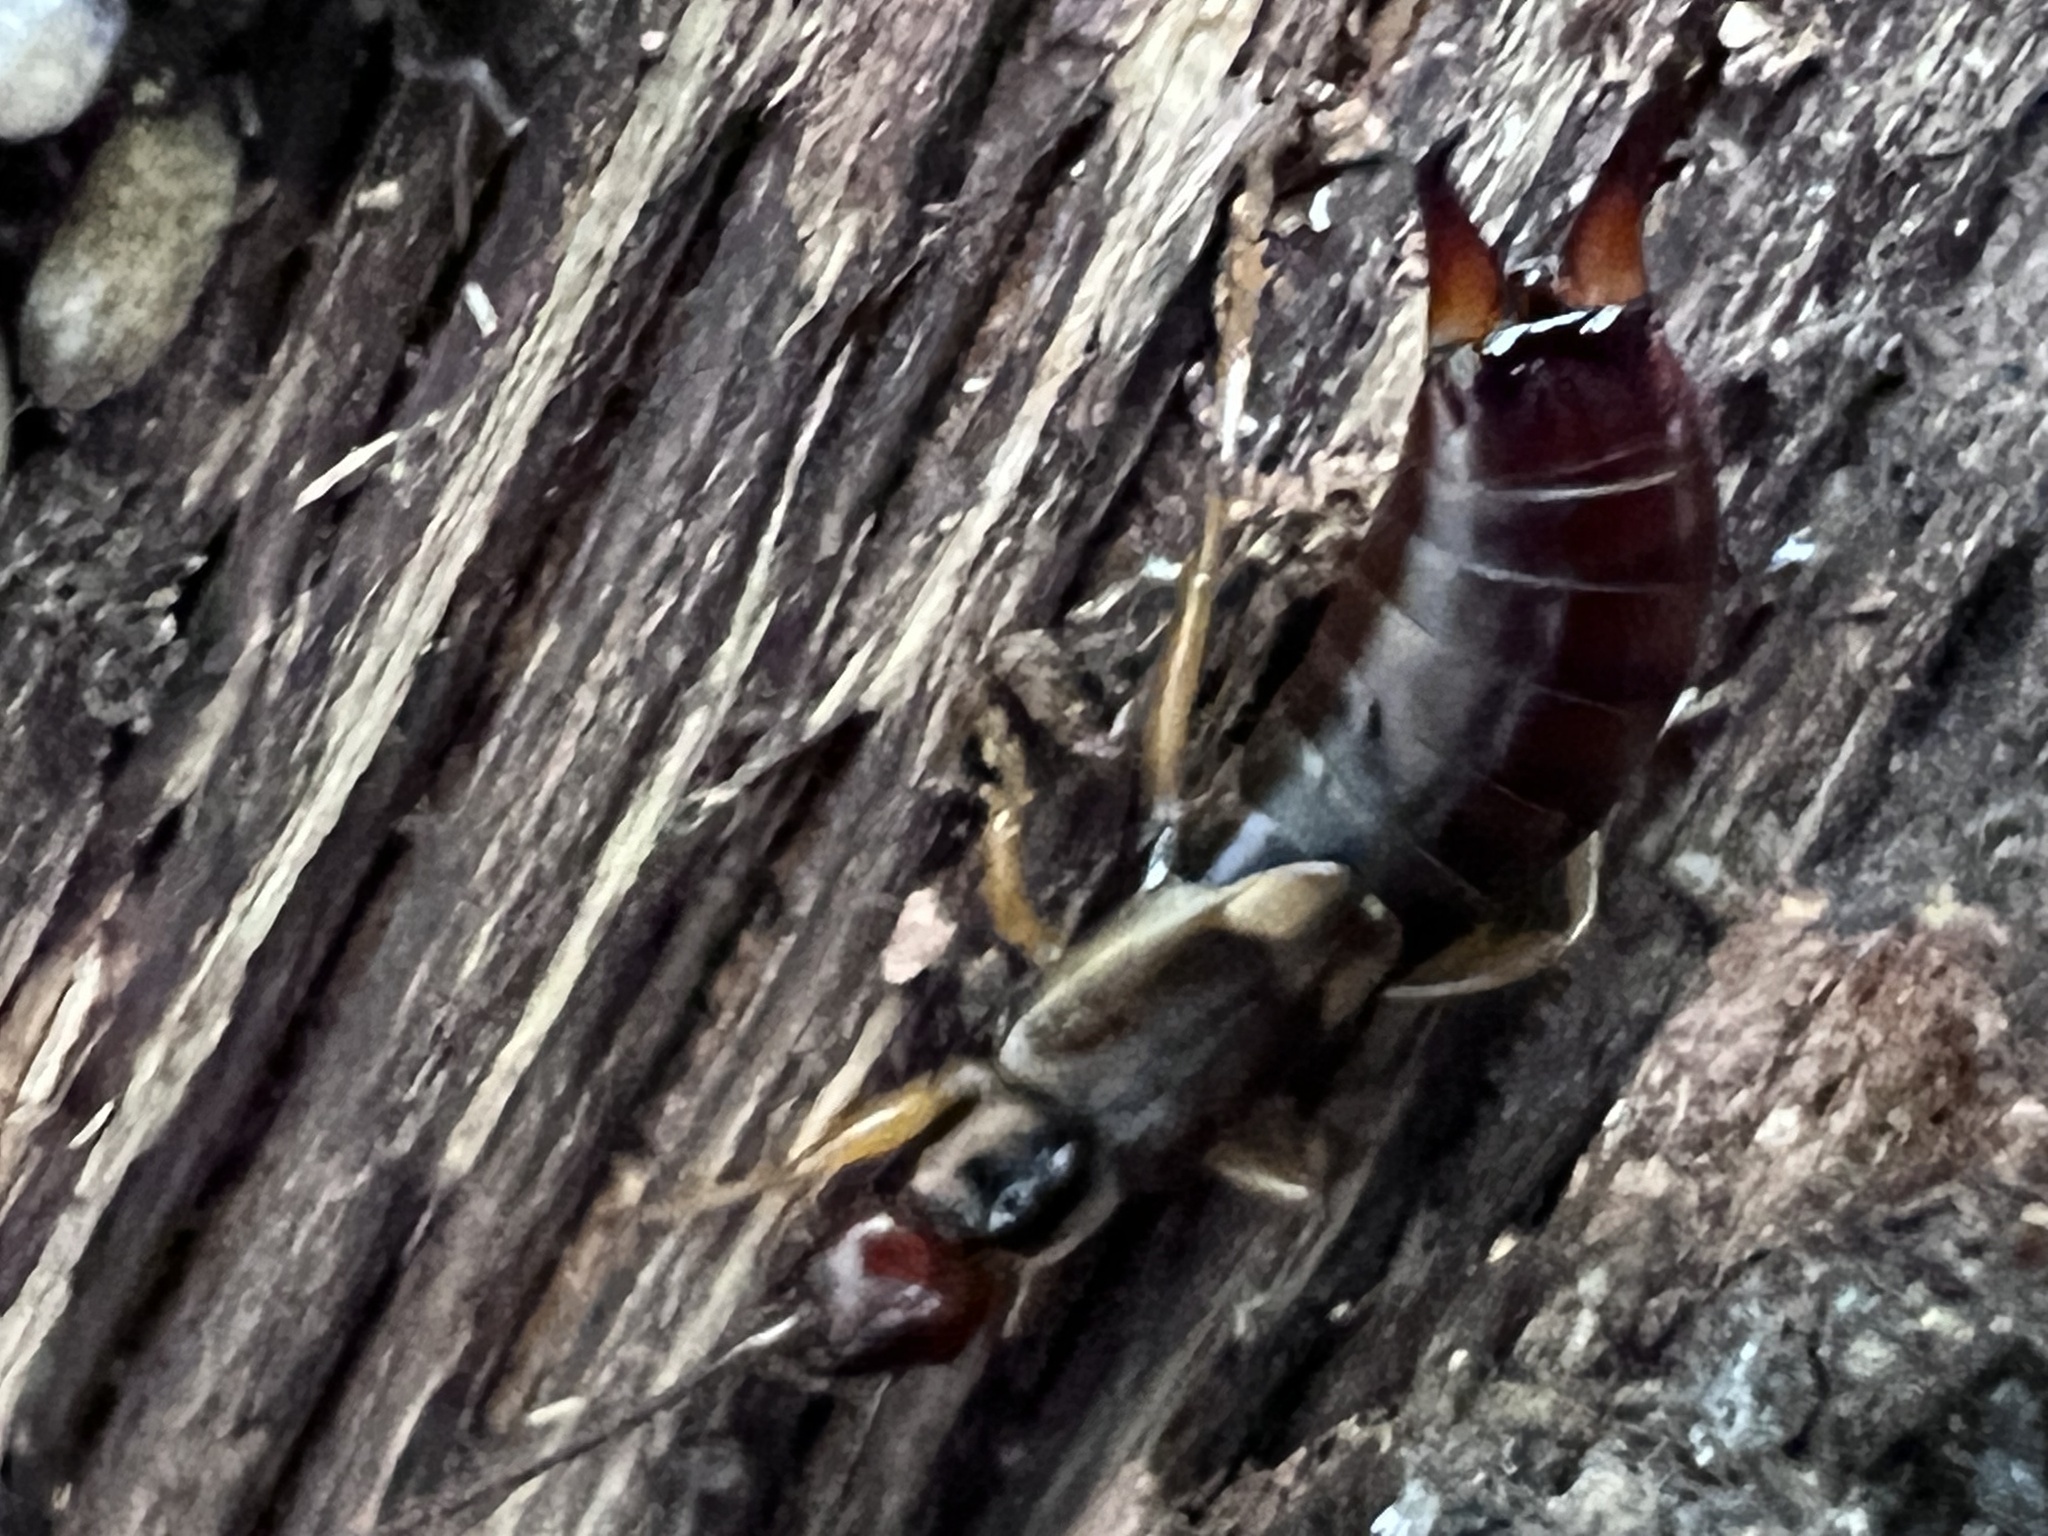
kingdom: Animalia
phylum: Arthropoda
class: Insecta
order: Dermaptera
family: Forficulidae
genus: Forficula
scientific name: Forficula
